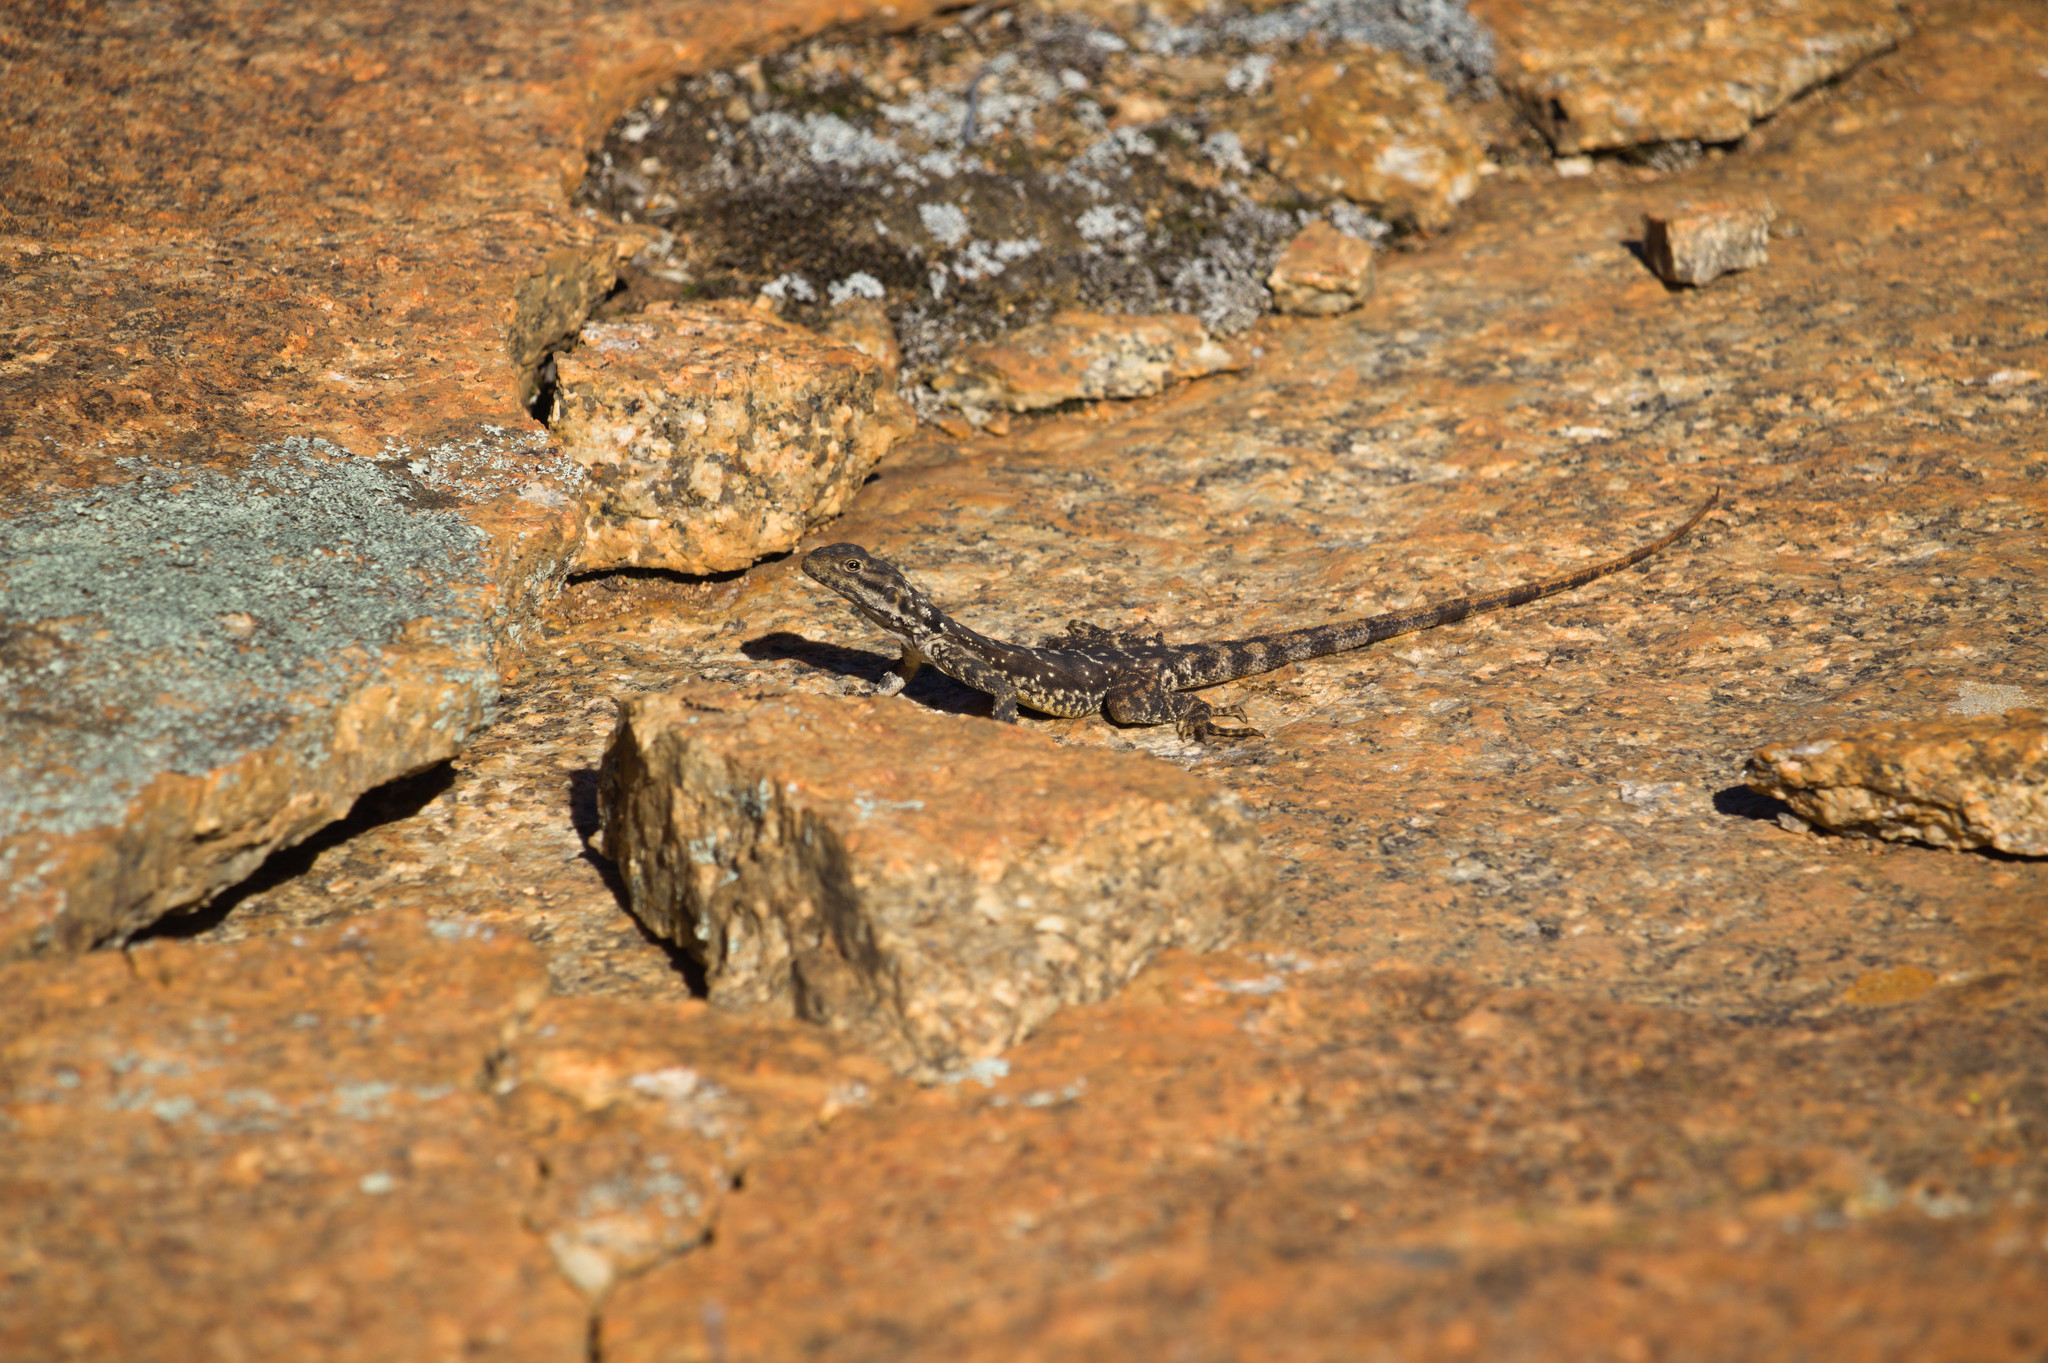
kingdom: Animalia
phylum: Chordata
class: Squamata
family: Agamidae
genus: Ctenophorus
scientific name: Ctenophorus ornatus
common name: Ornate crevice-dragon
